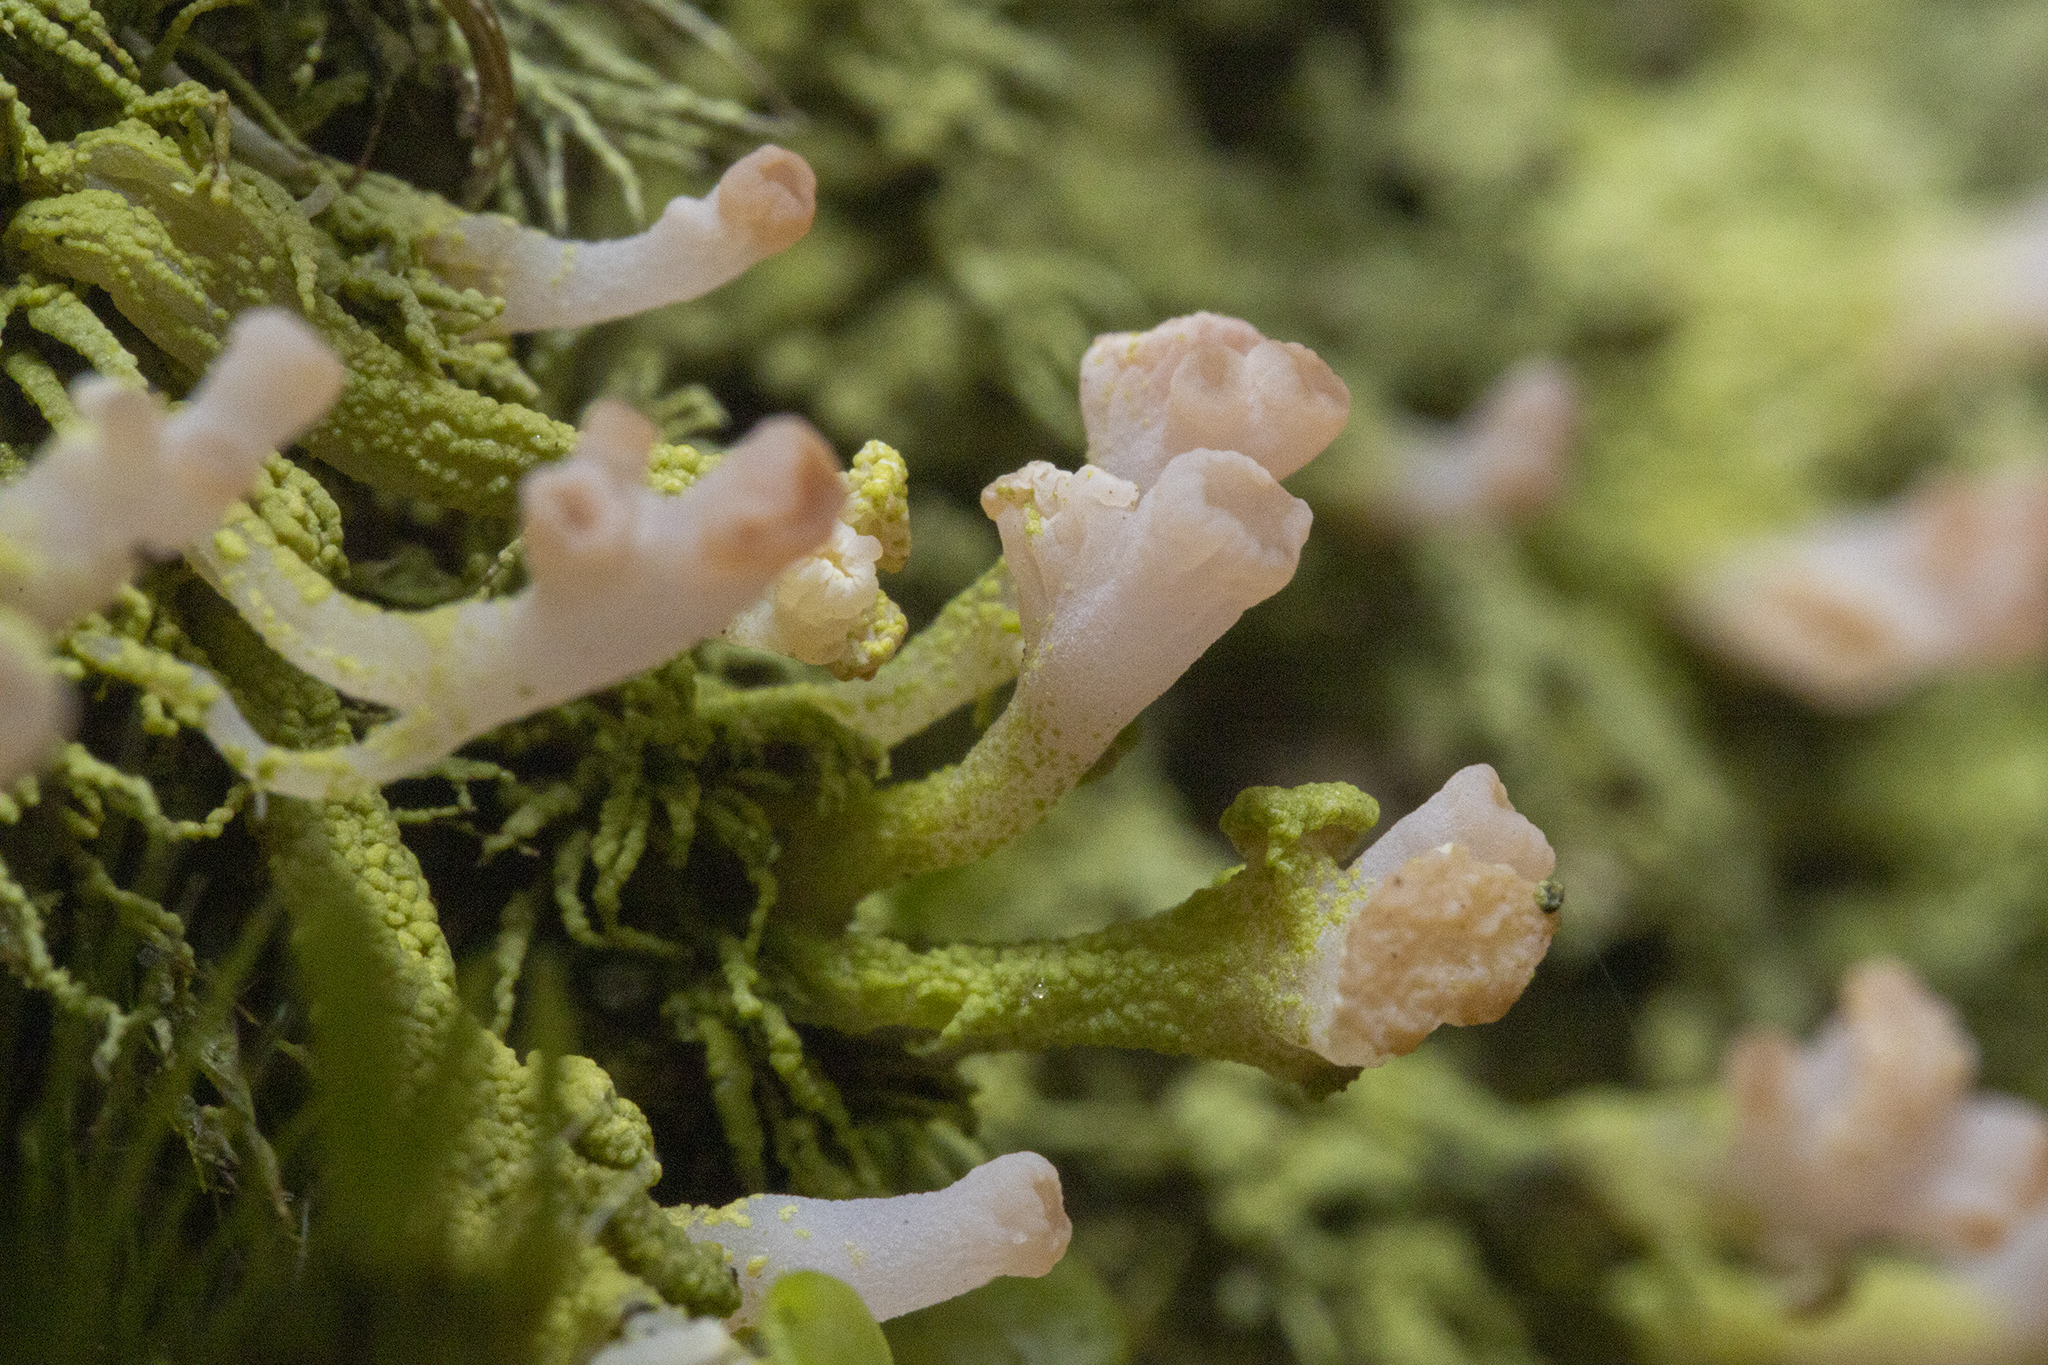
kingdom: Fungi
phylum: Ascomycota
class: Lecanoromycetes
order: Baeomycetales
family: Baeomycetaceae
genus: Baeomyces
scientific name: Baeomyces heteromorphus
